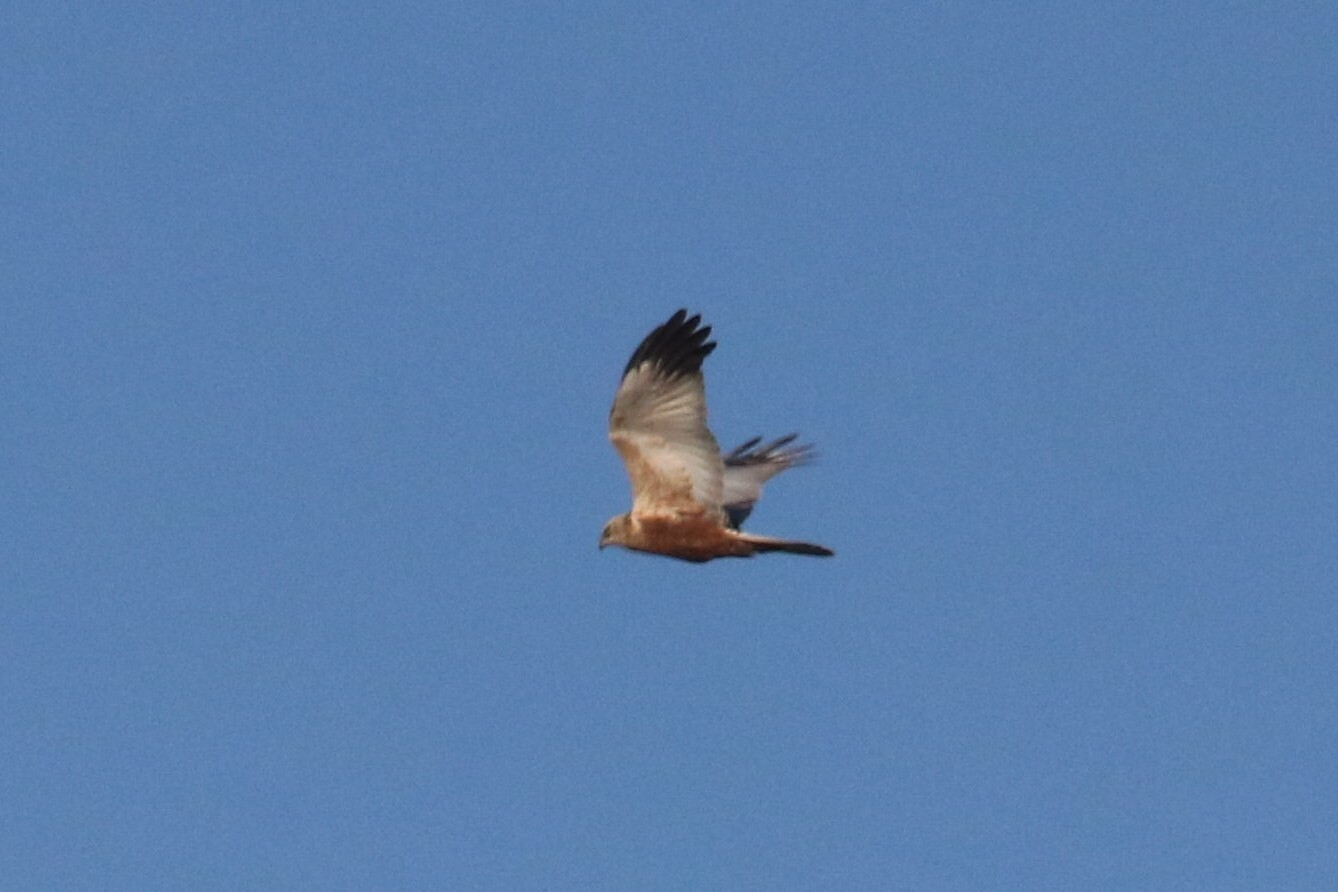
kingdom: Animalia
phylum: Chordata
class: Aves
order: Accipitriformes
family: Accipitridae
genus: Circus
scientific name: Circus aeruginosus
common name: Western marsh harrier
